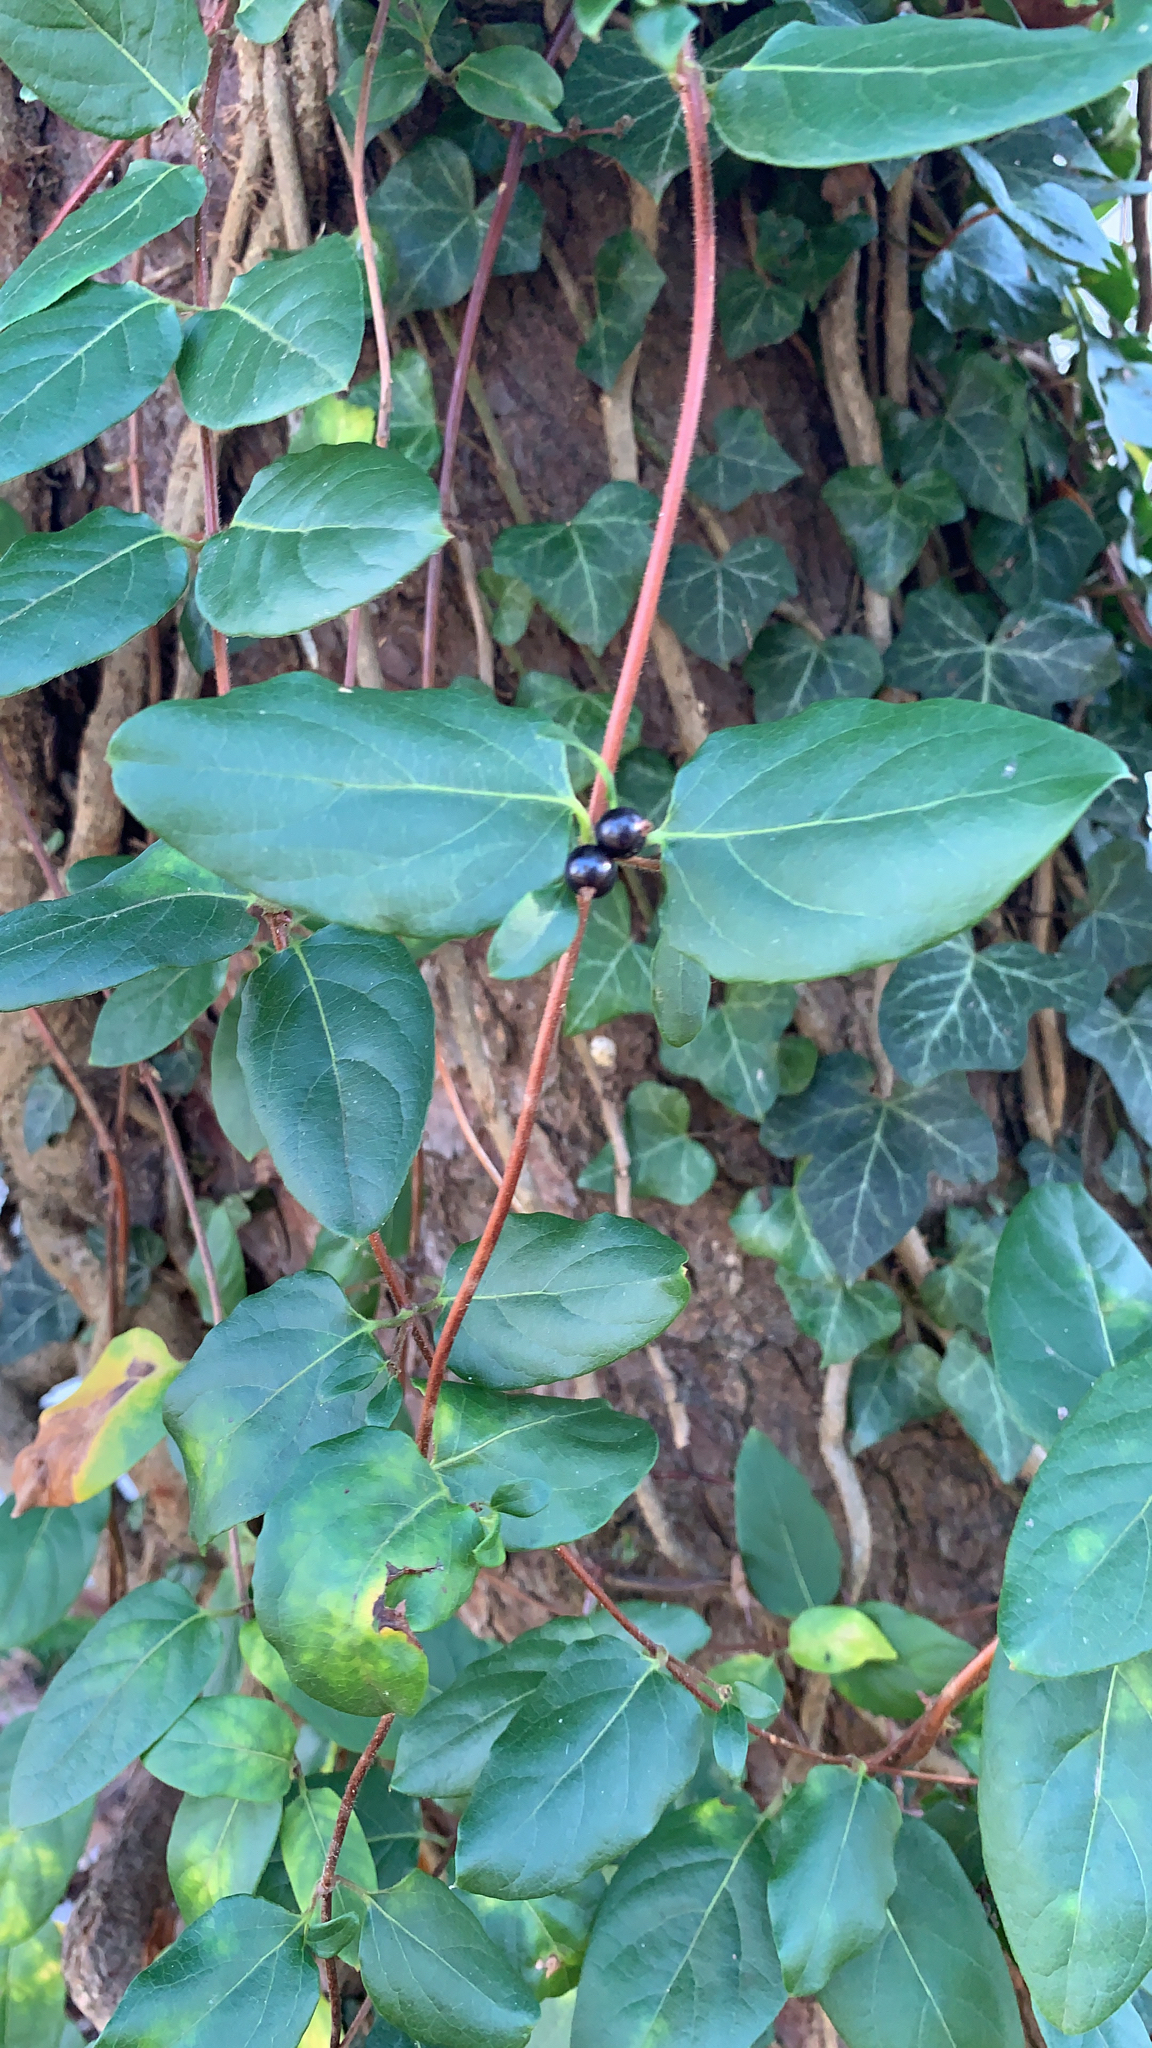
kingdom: Plantae
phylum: Tracheophyta
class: Magnoliopsida
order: Dipsacales
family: Caprifoliaceae
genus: Lonicera
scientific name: Lonicera japonica
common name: Japanese honeysuckle
